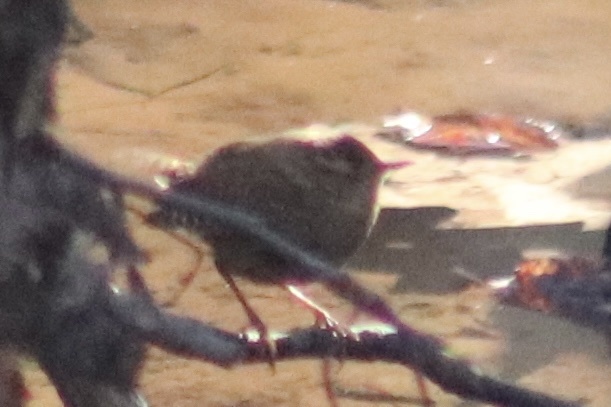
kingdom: Animalia
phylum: Chordata
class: Aves
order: Passeriformes
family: Troglodytidae
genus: Troglodytes
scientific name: Troglodytes hiemalis
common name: Winter wren
